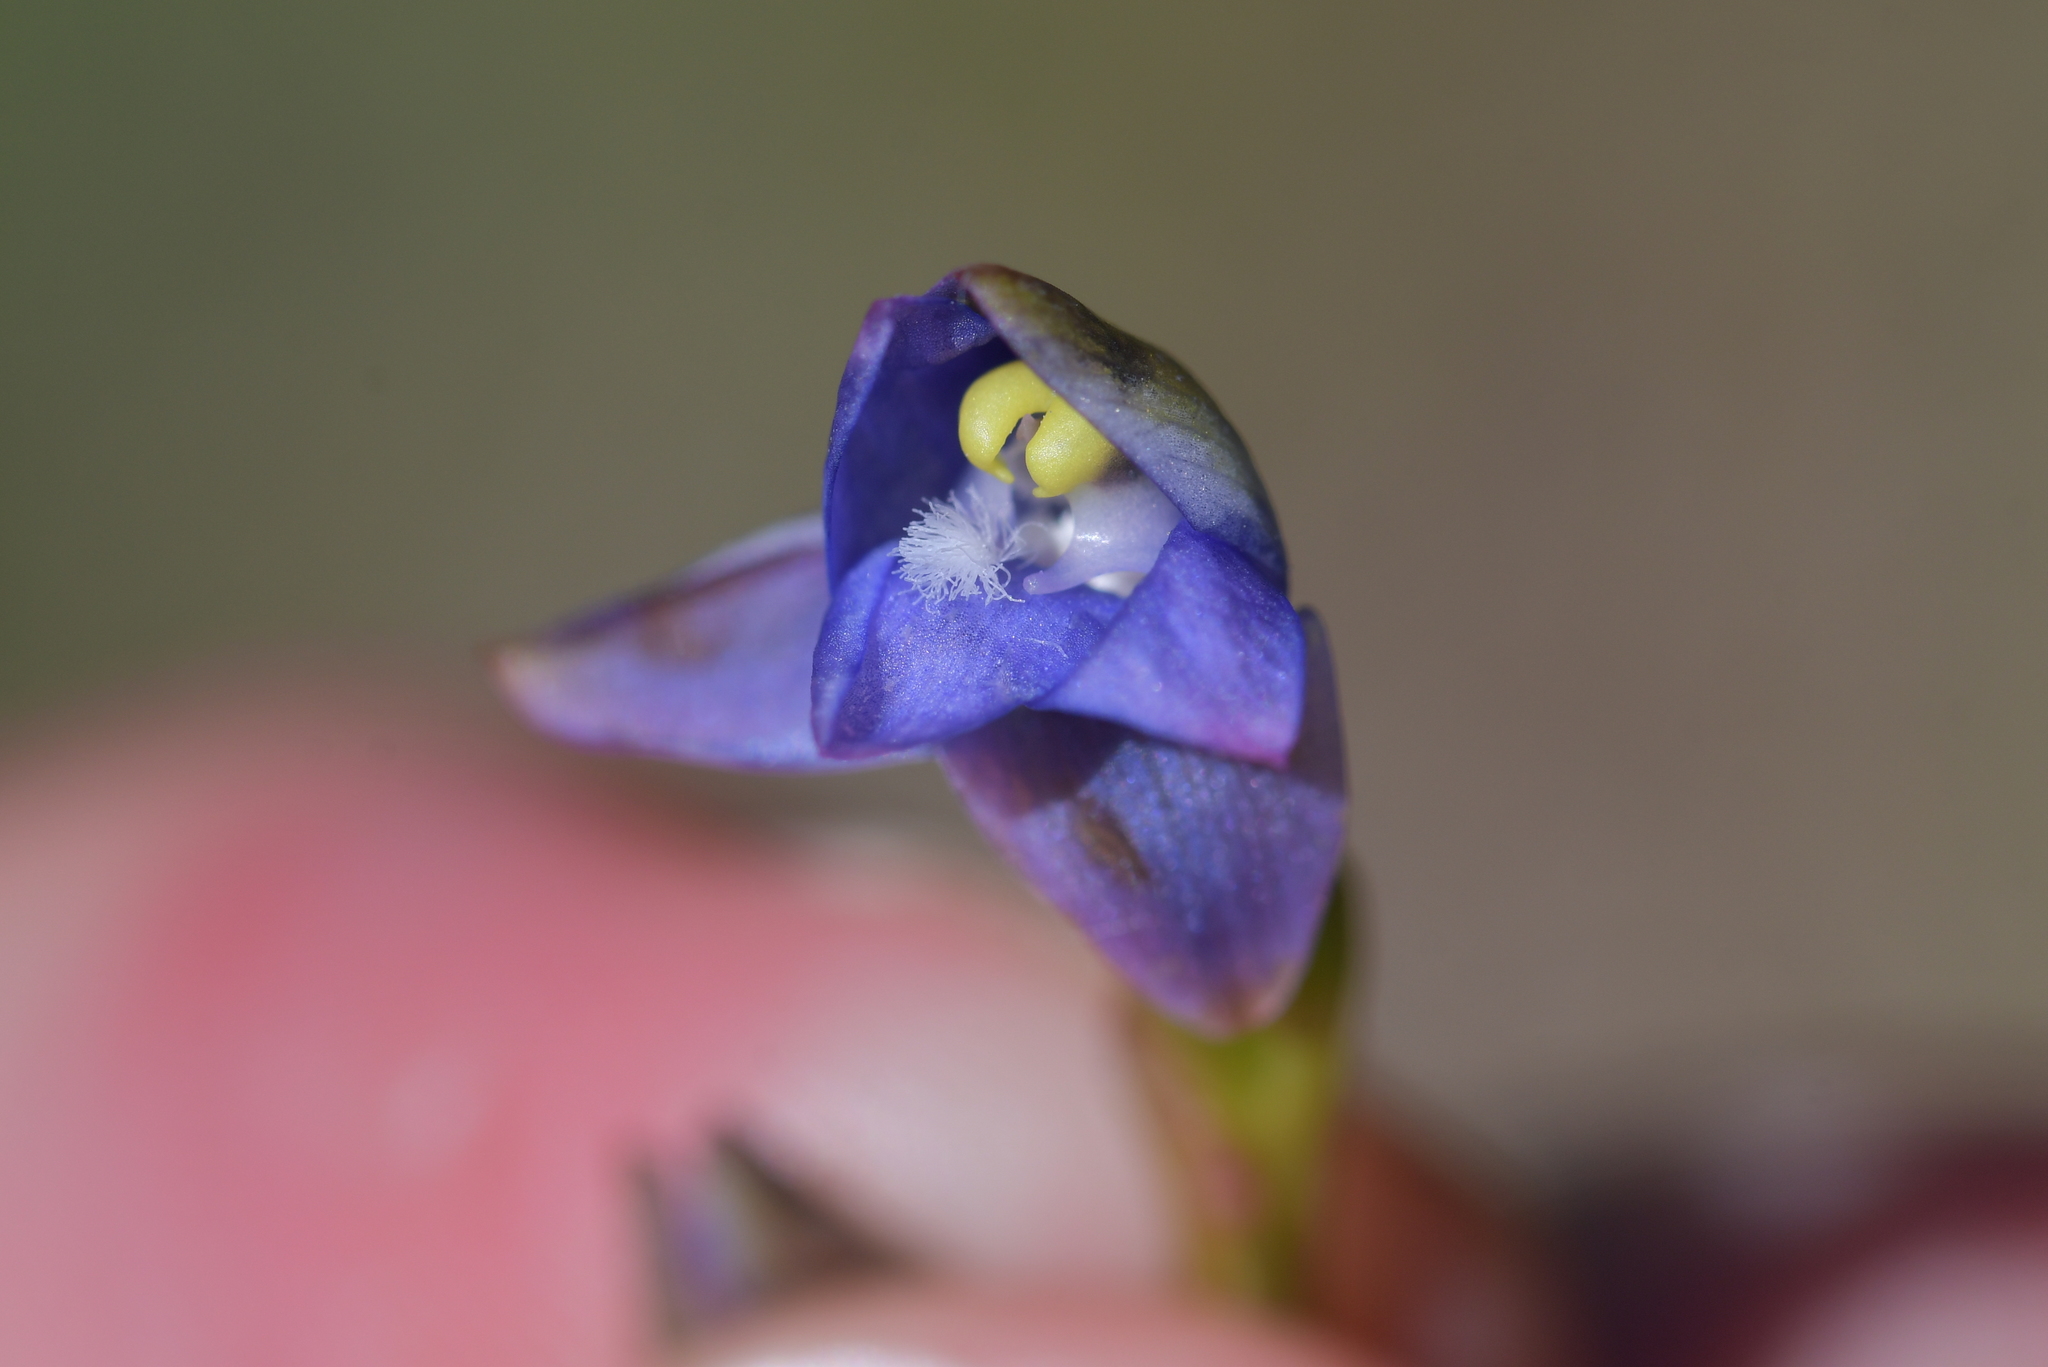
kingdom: Plantae
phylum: Tracheophyta
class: Liliopsida
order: Asparagales
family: Orchidaceae
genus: Thelymitra
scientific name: Thelymitra pauciflora
